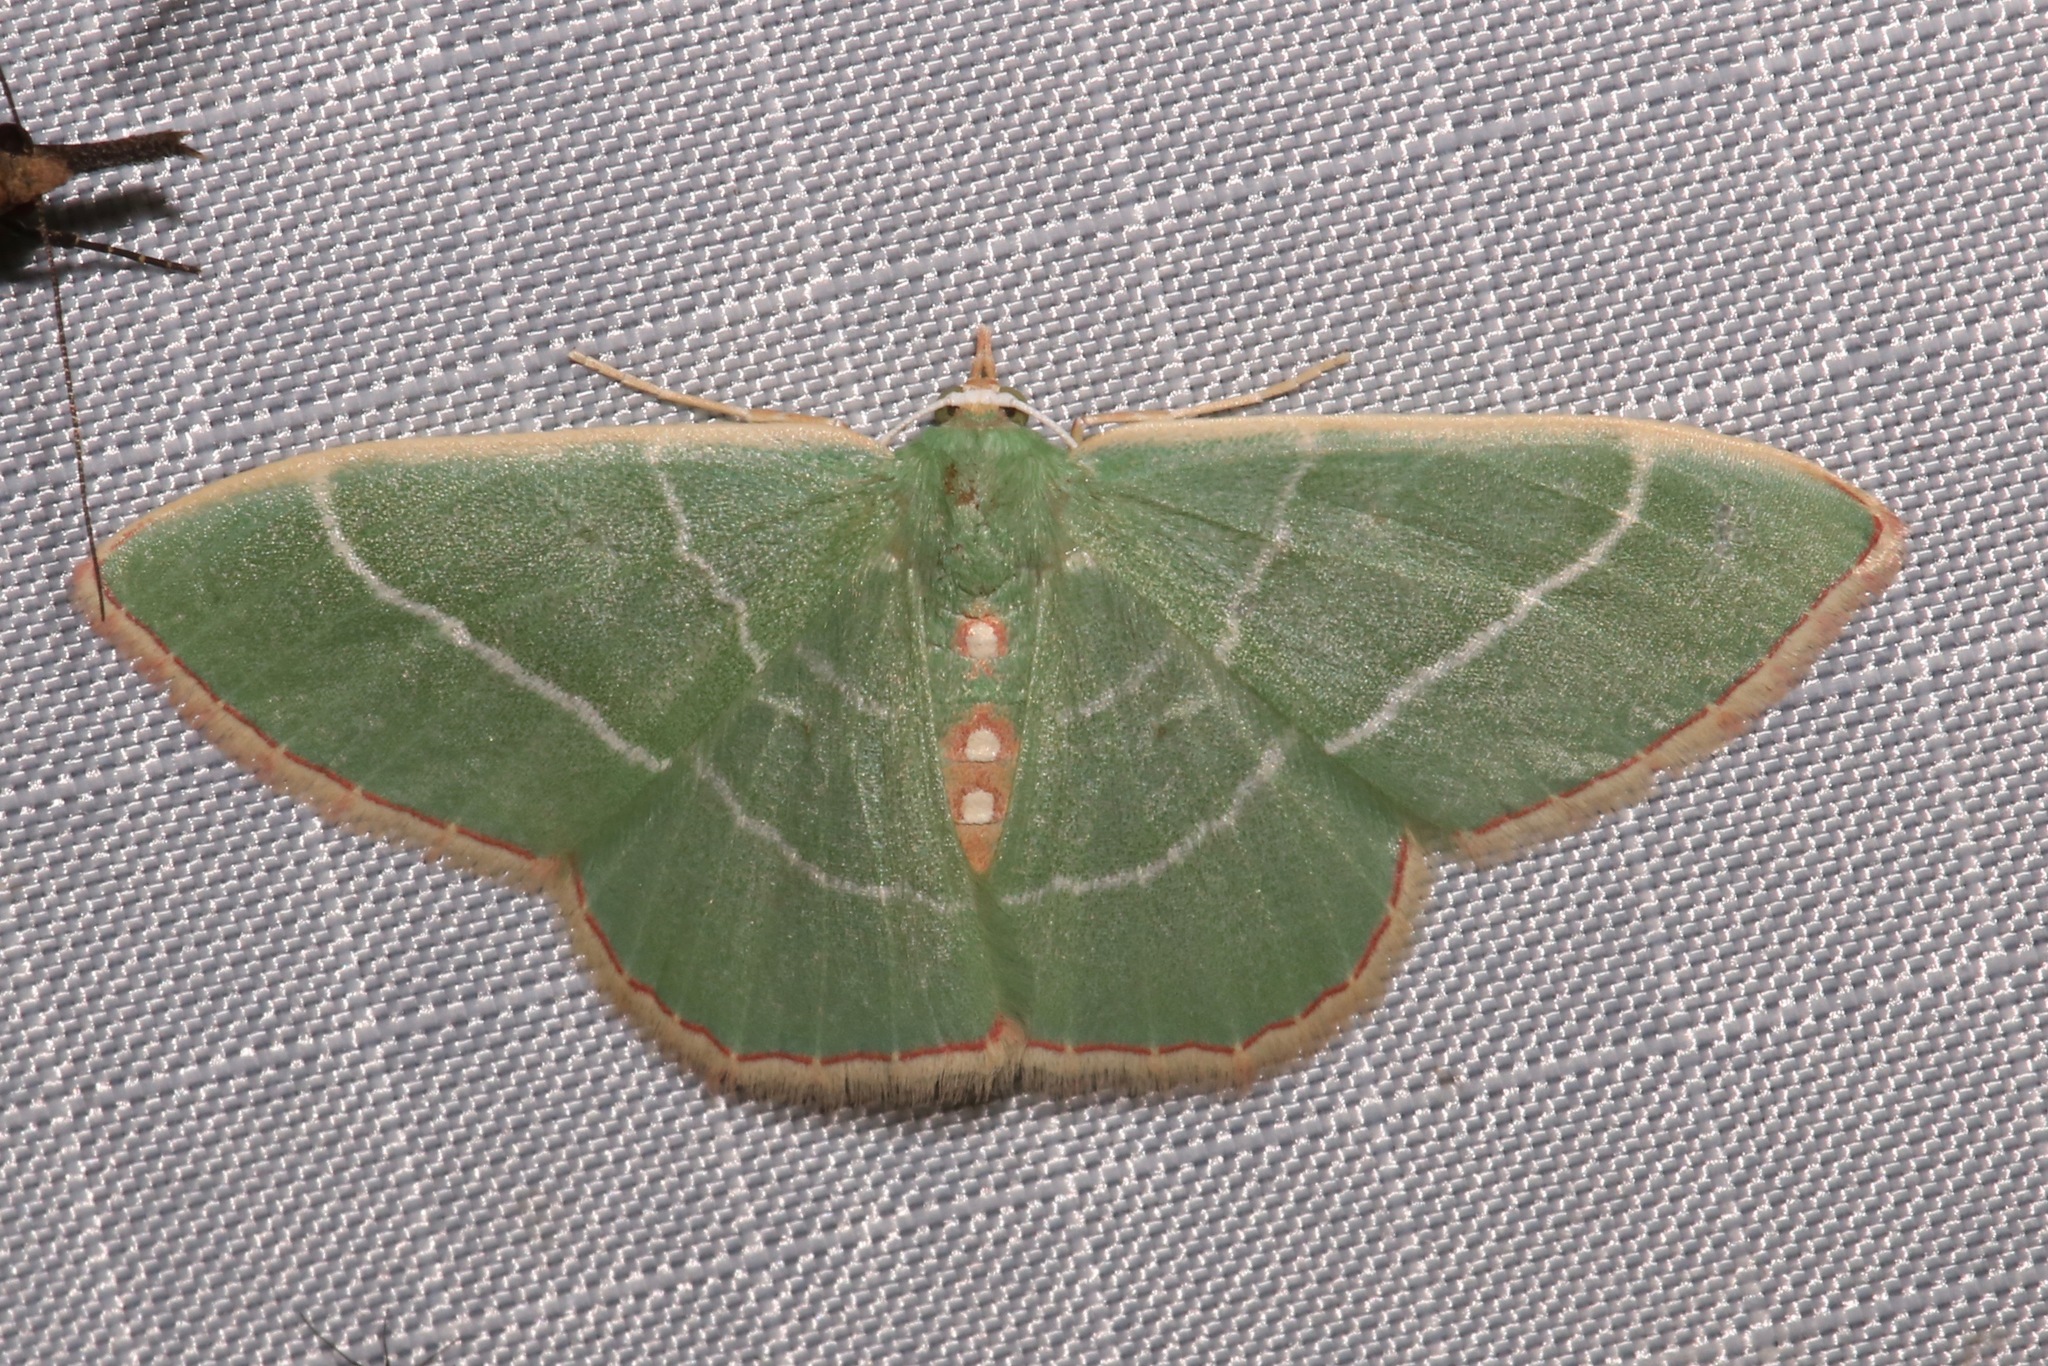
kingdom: Animalia
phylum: Arthropoda
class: Insecta
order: Lepidoptera
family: Geometridae
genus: Nemoria
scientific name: Nemoria obliqua
